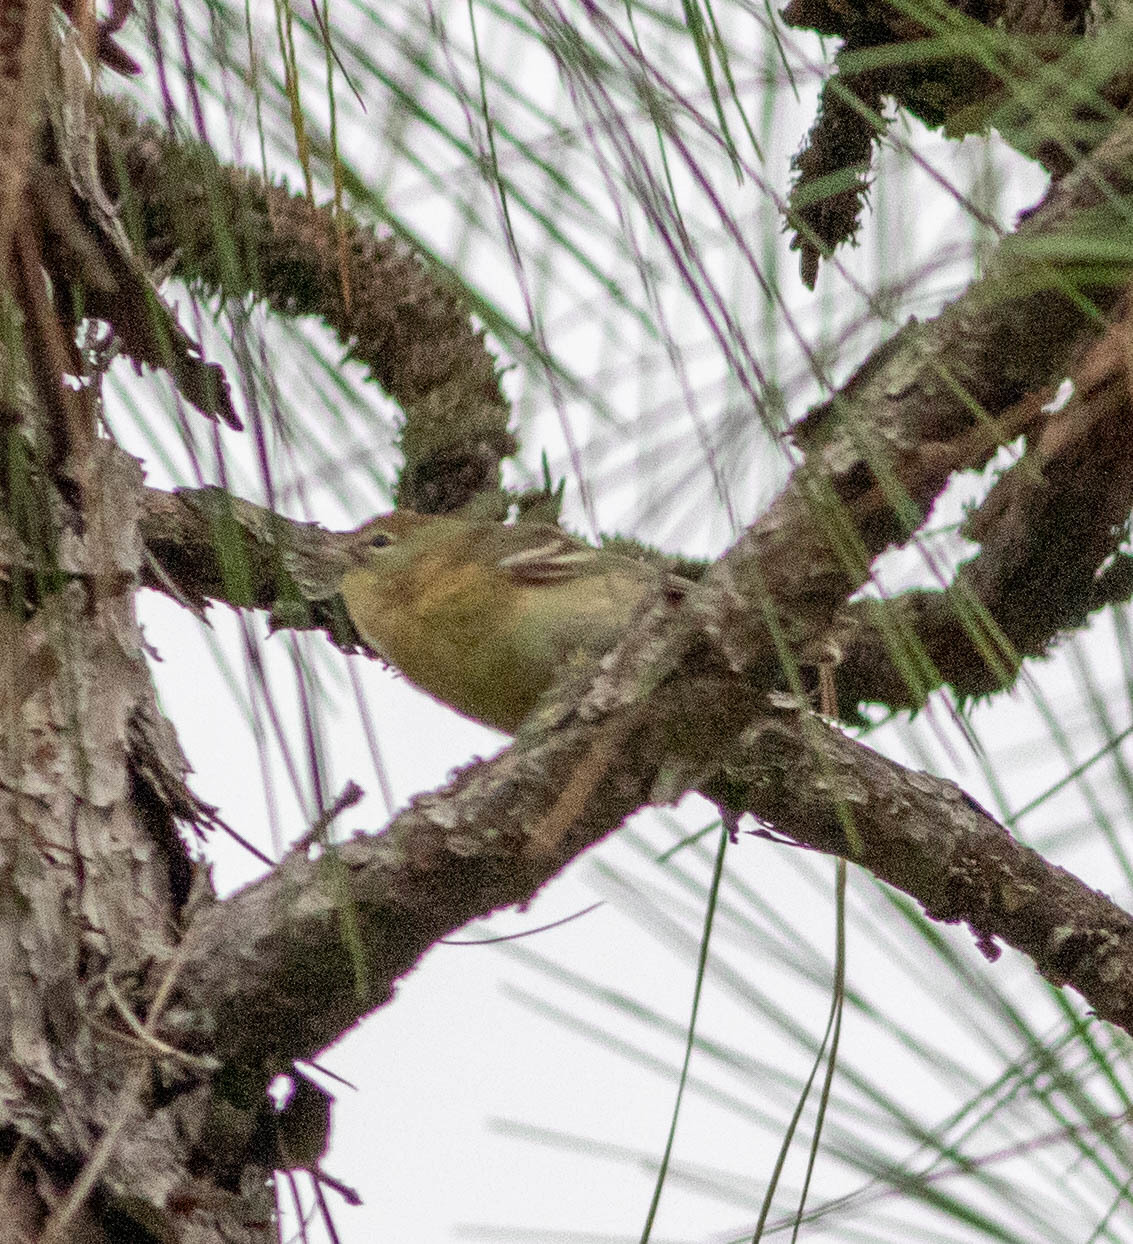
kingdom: Animalia
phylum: Chordata
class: Aves
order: Passeriformes
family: Parulidae
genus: Setophaga
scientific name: Setophaga pinus
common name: Pine warbler
